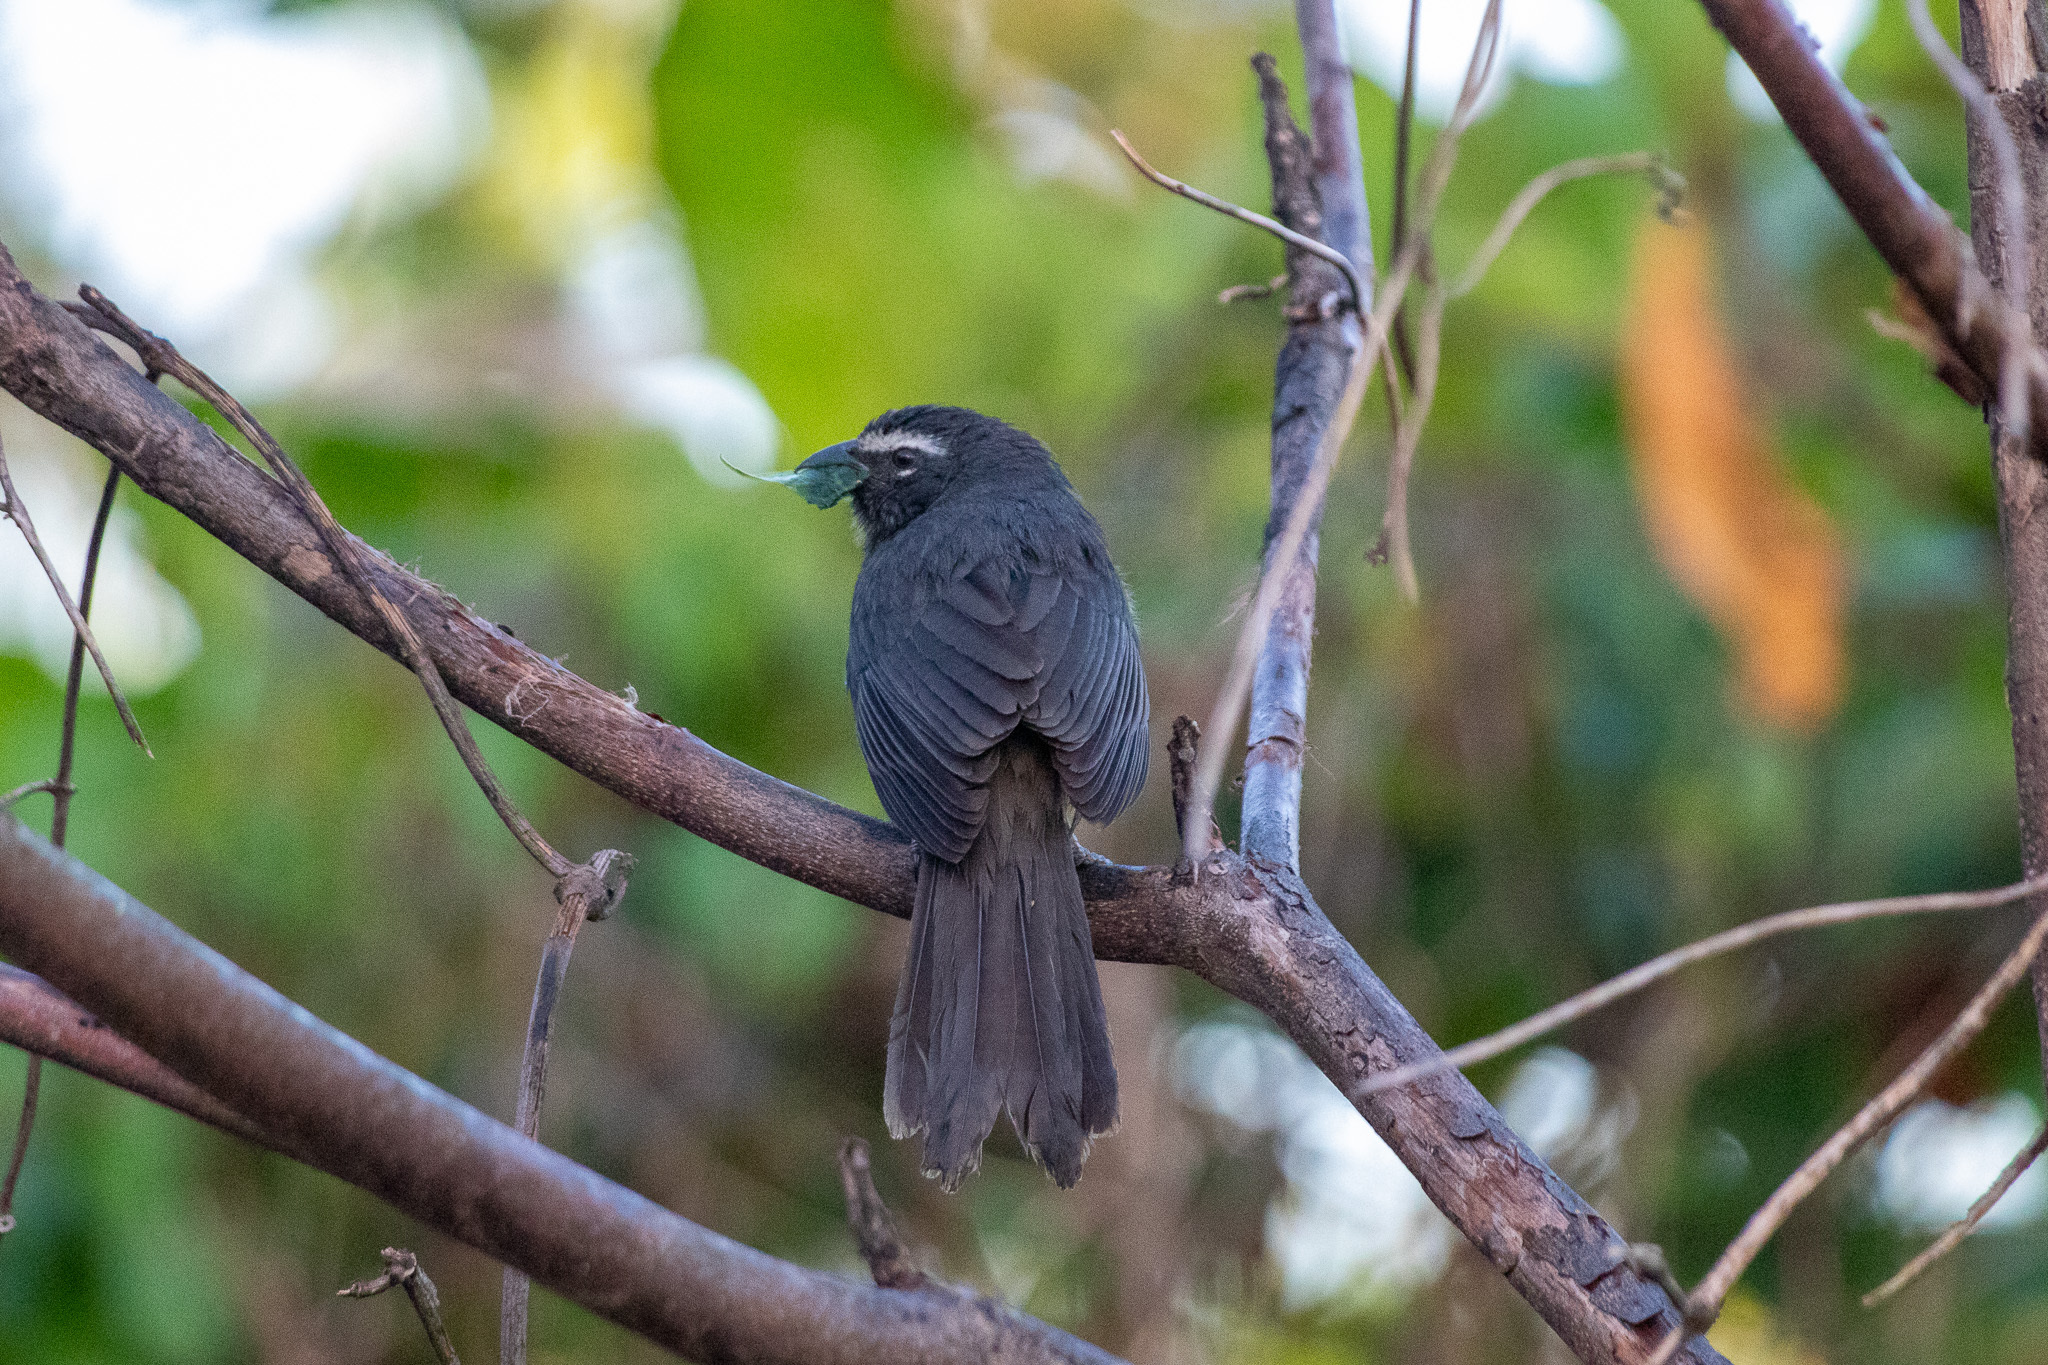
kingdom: Animalia
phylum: Chordata
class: Aves
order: Passeriformes
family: Thraupidae
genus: Saltator
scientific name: Saltator grandis
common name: Cinnamon-bellied saltator
